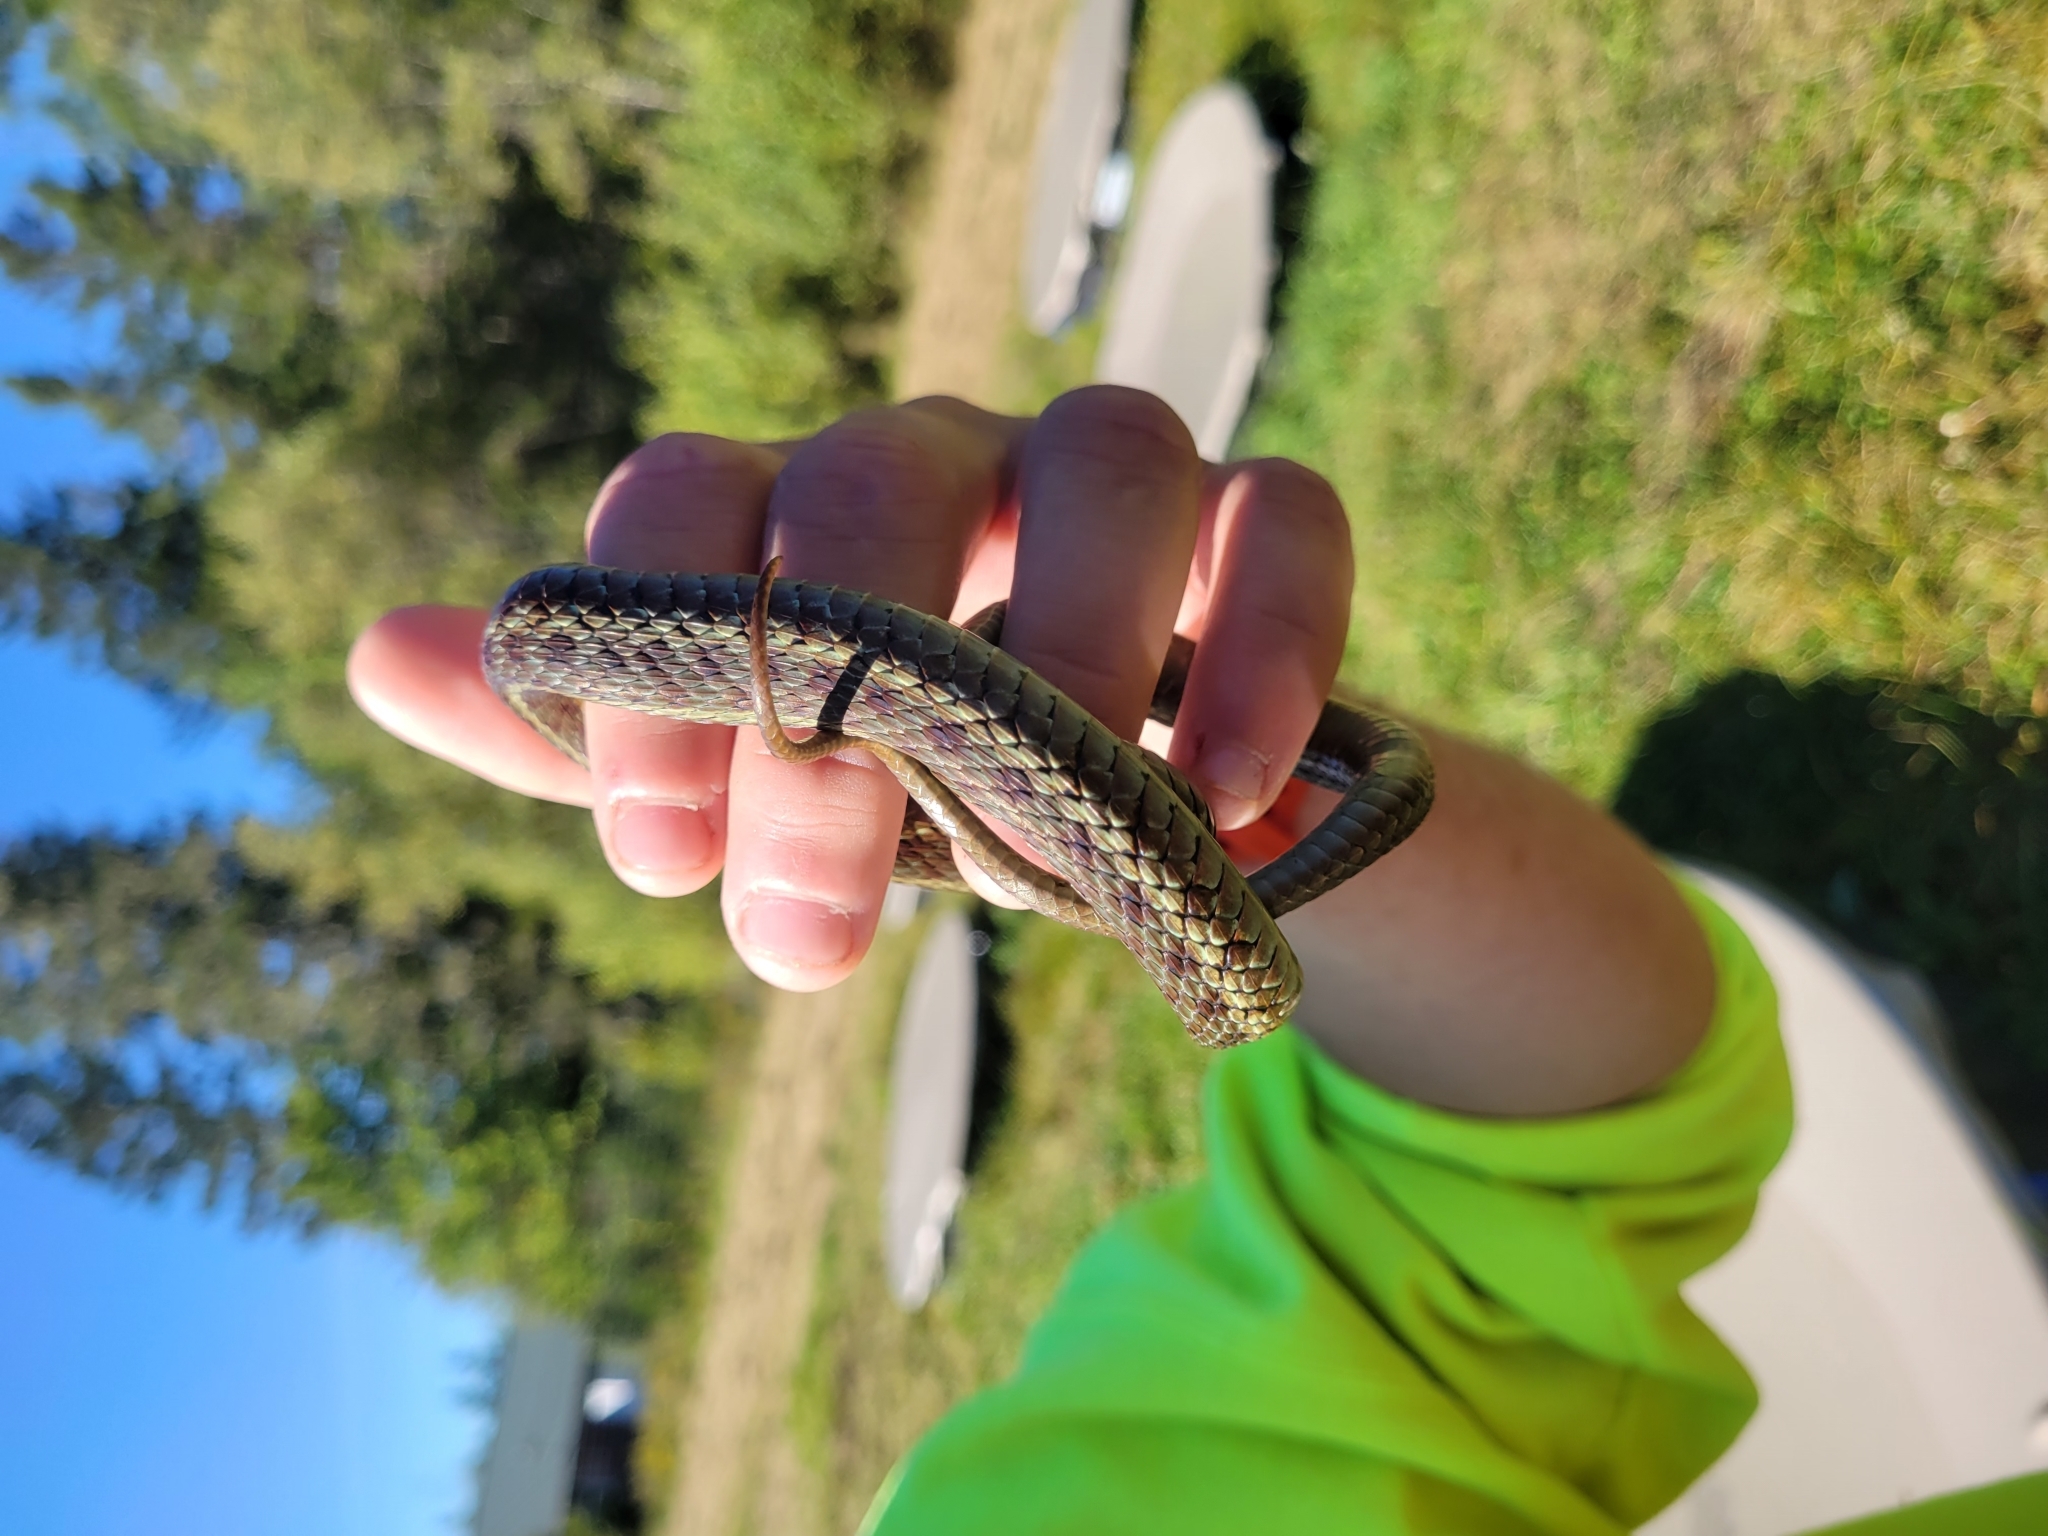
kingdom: Animalia
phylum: Chordata
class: Squamata
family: Colubridae
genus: Thamnophis
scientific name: Thamnophis sirtalis
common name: Common garter snake
